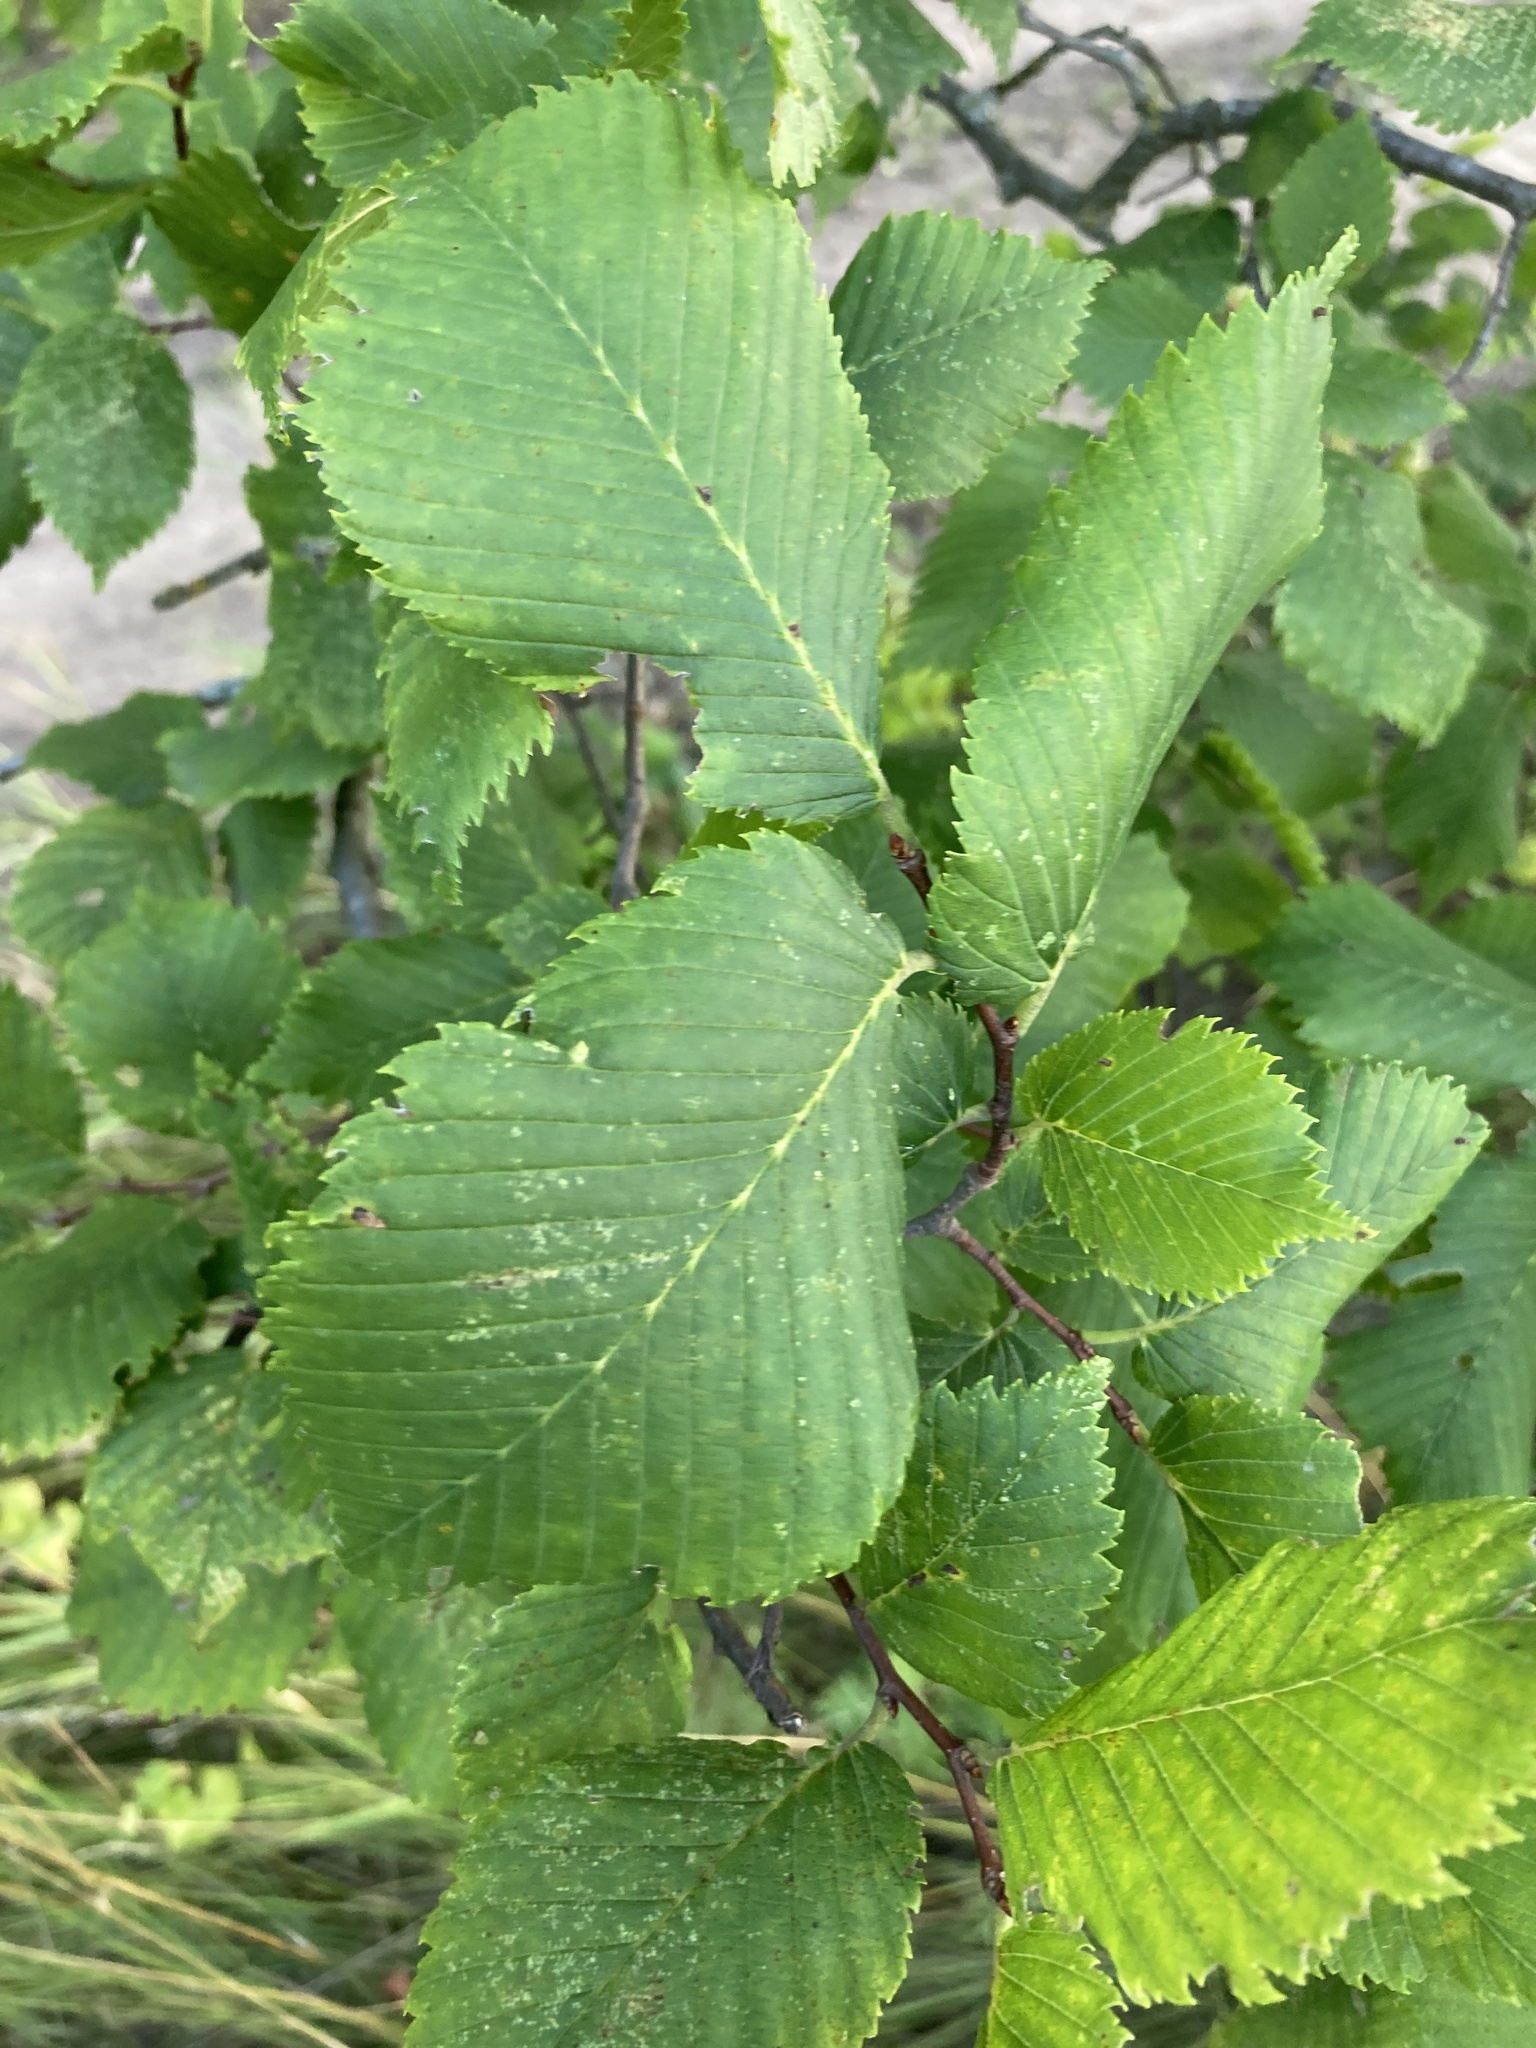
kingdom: Plantae
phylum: Tracheophyta
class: Magnoliopsida
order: Rosales
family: Ulmaceae
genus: Ulmus
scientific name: Ulmus laevis
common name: European white-elm
